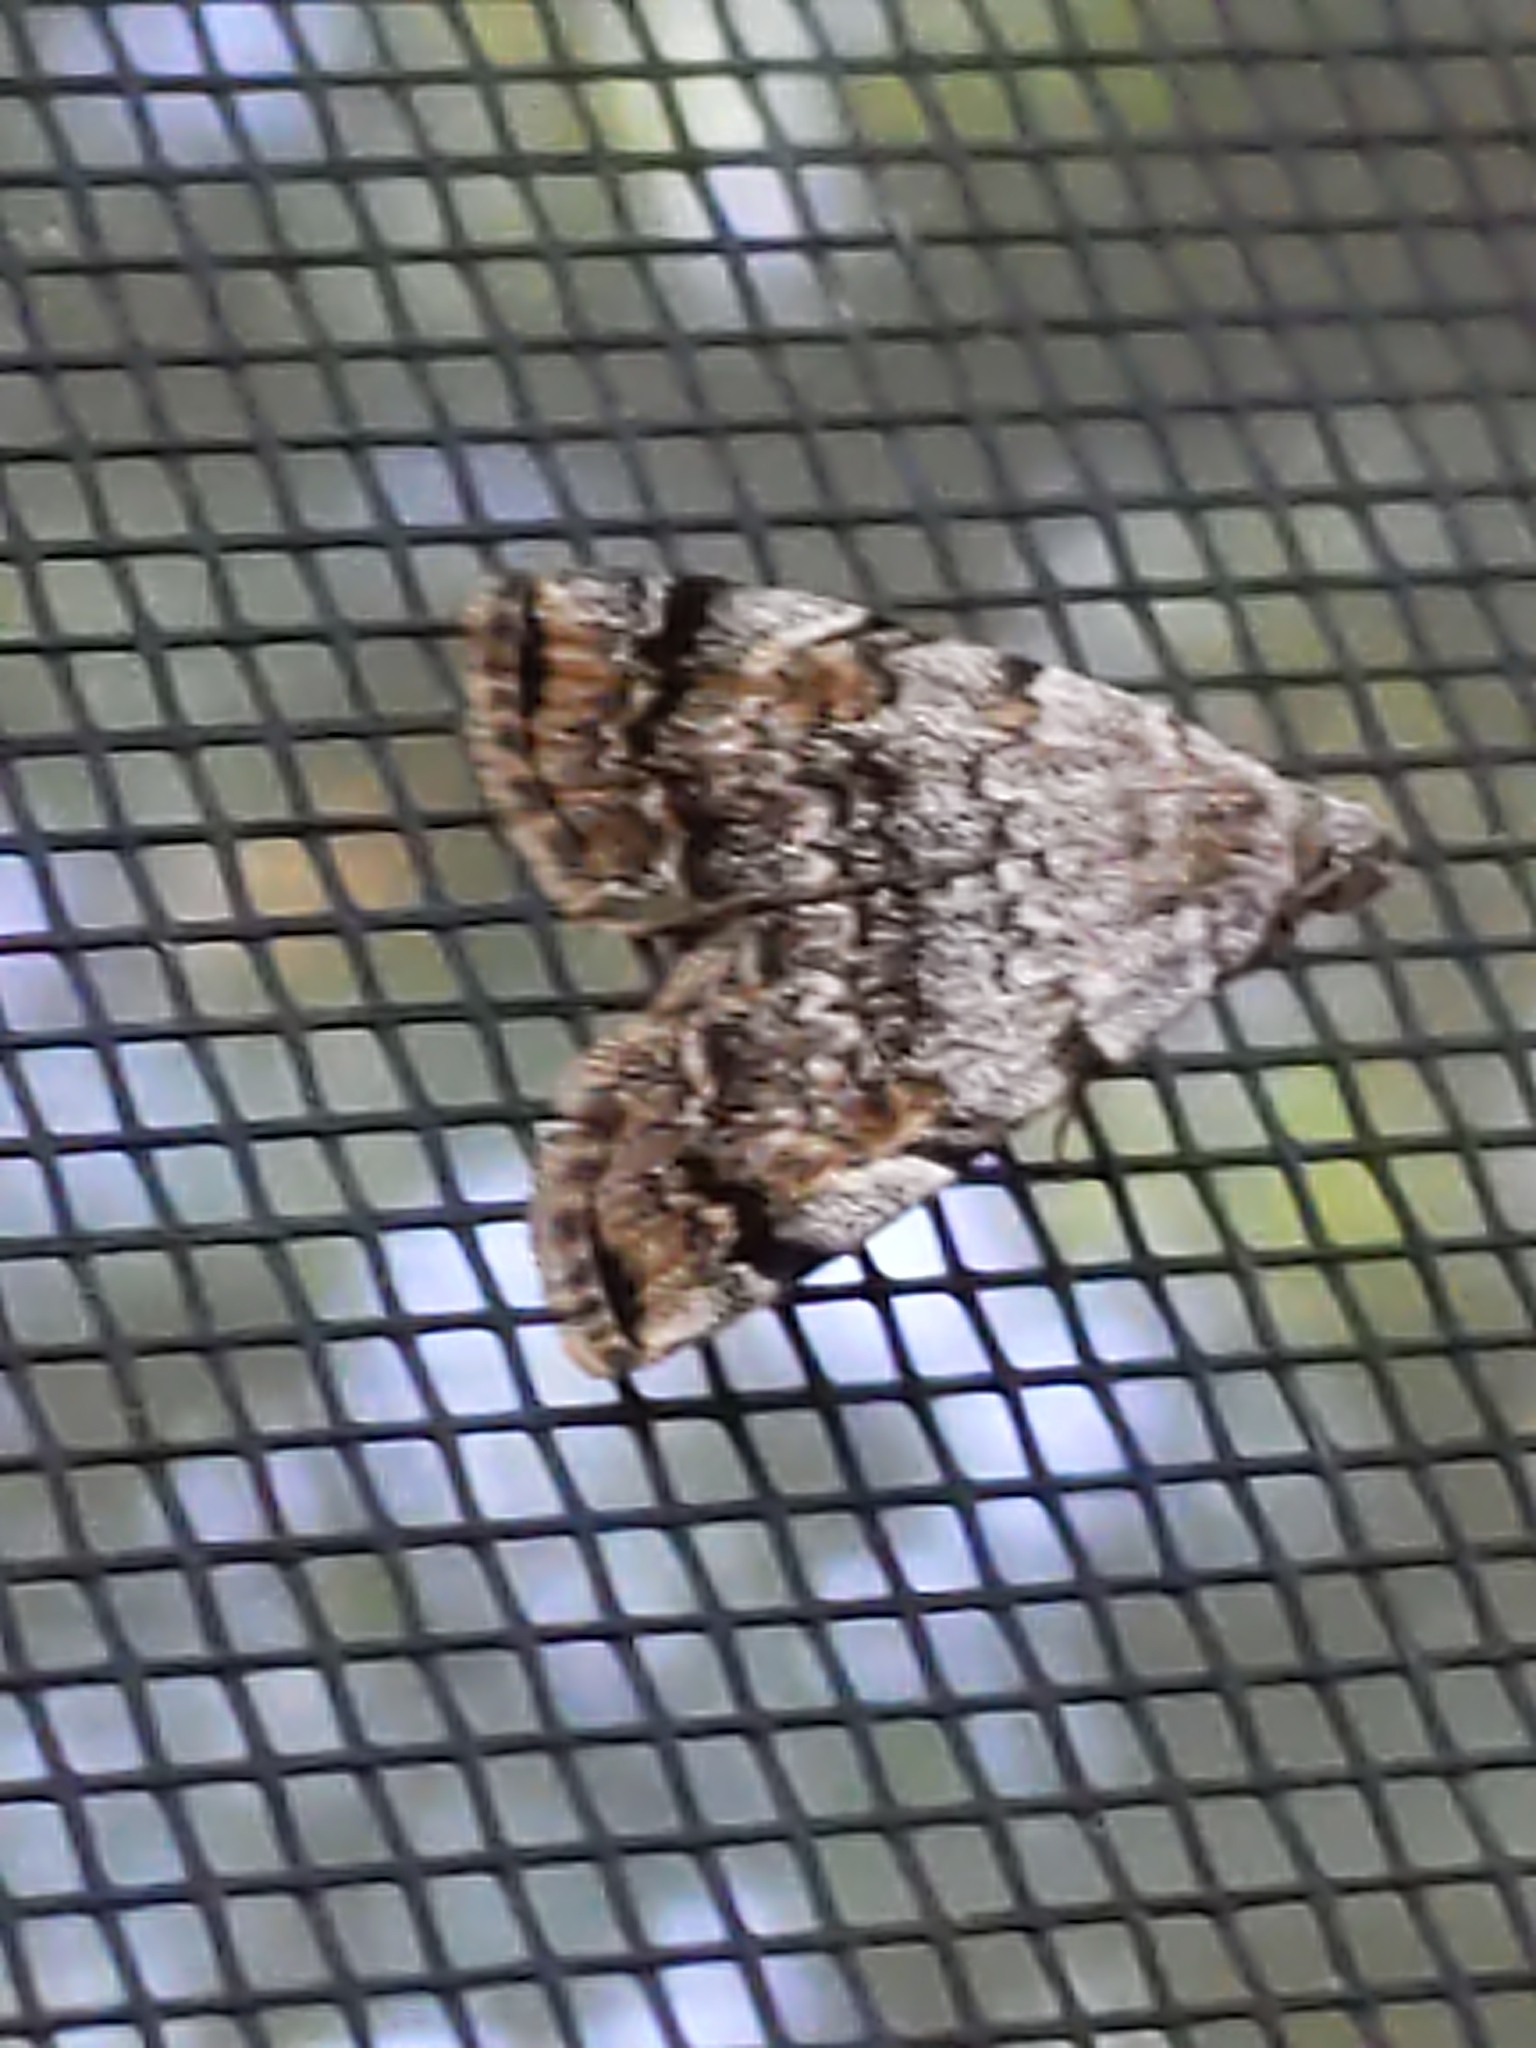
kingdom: Animalia
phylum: Arthropoda
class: Insecta
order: Lepidoptera
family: Erebidae
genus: Idia
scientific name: Idia americalis
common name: American idia moth
